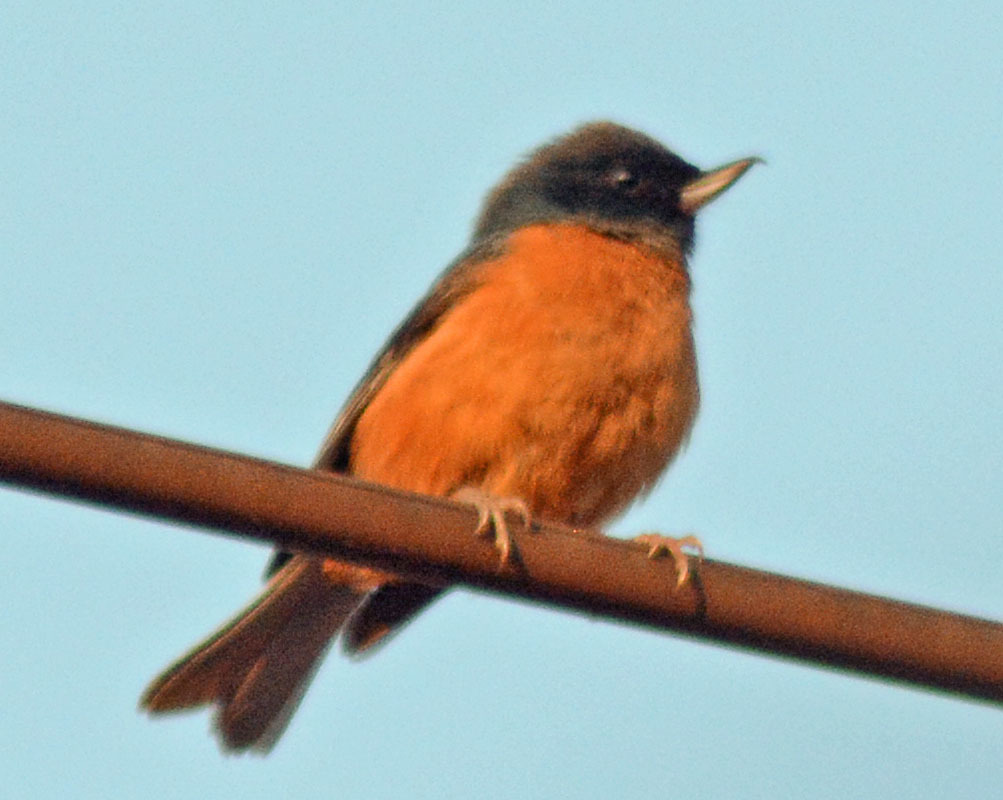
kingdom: Animalia
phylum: Chordata
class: Aves
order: Passeriformes
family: Thraupidae
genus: Diglossa
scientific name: Diglossa baritula
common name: Cinnamon-bellied flowerpiercer
